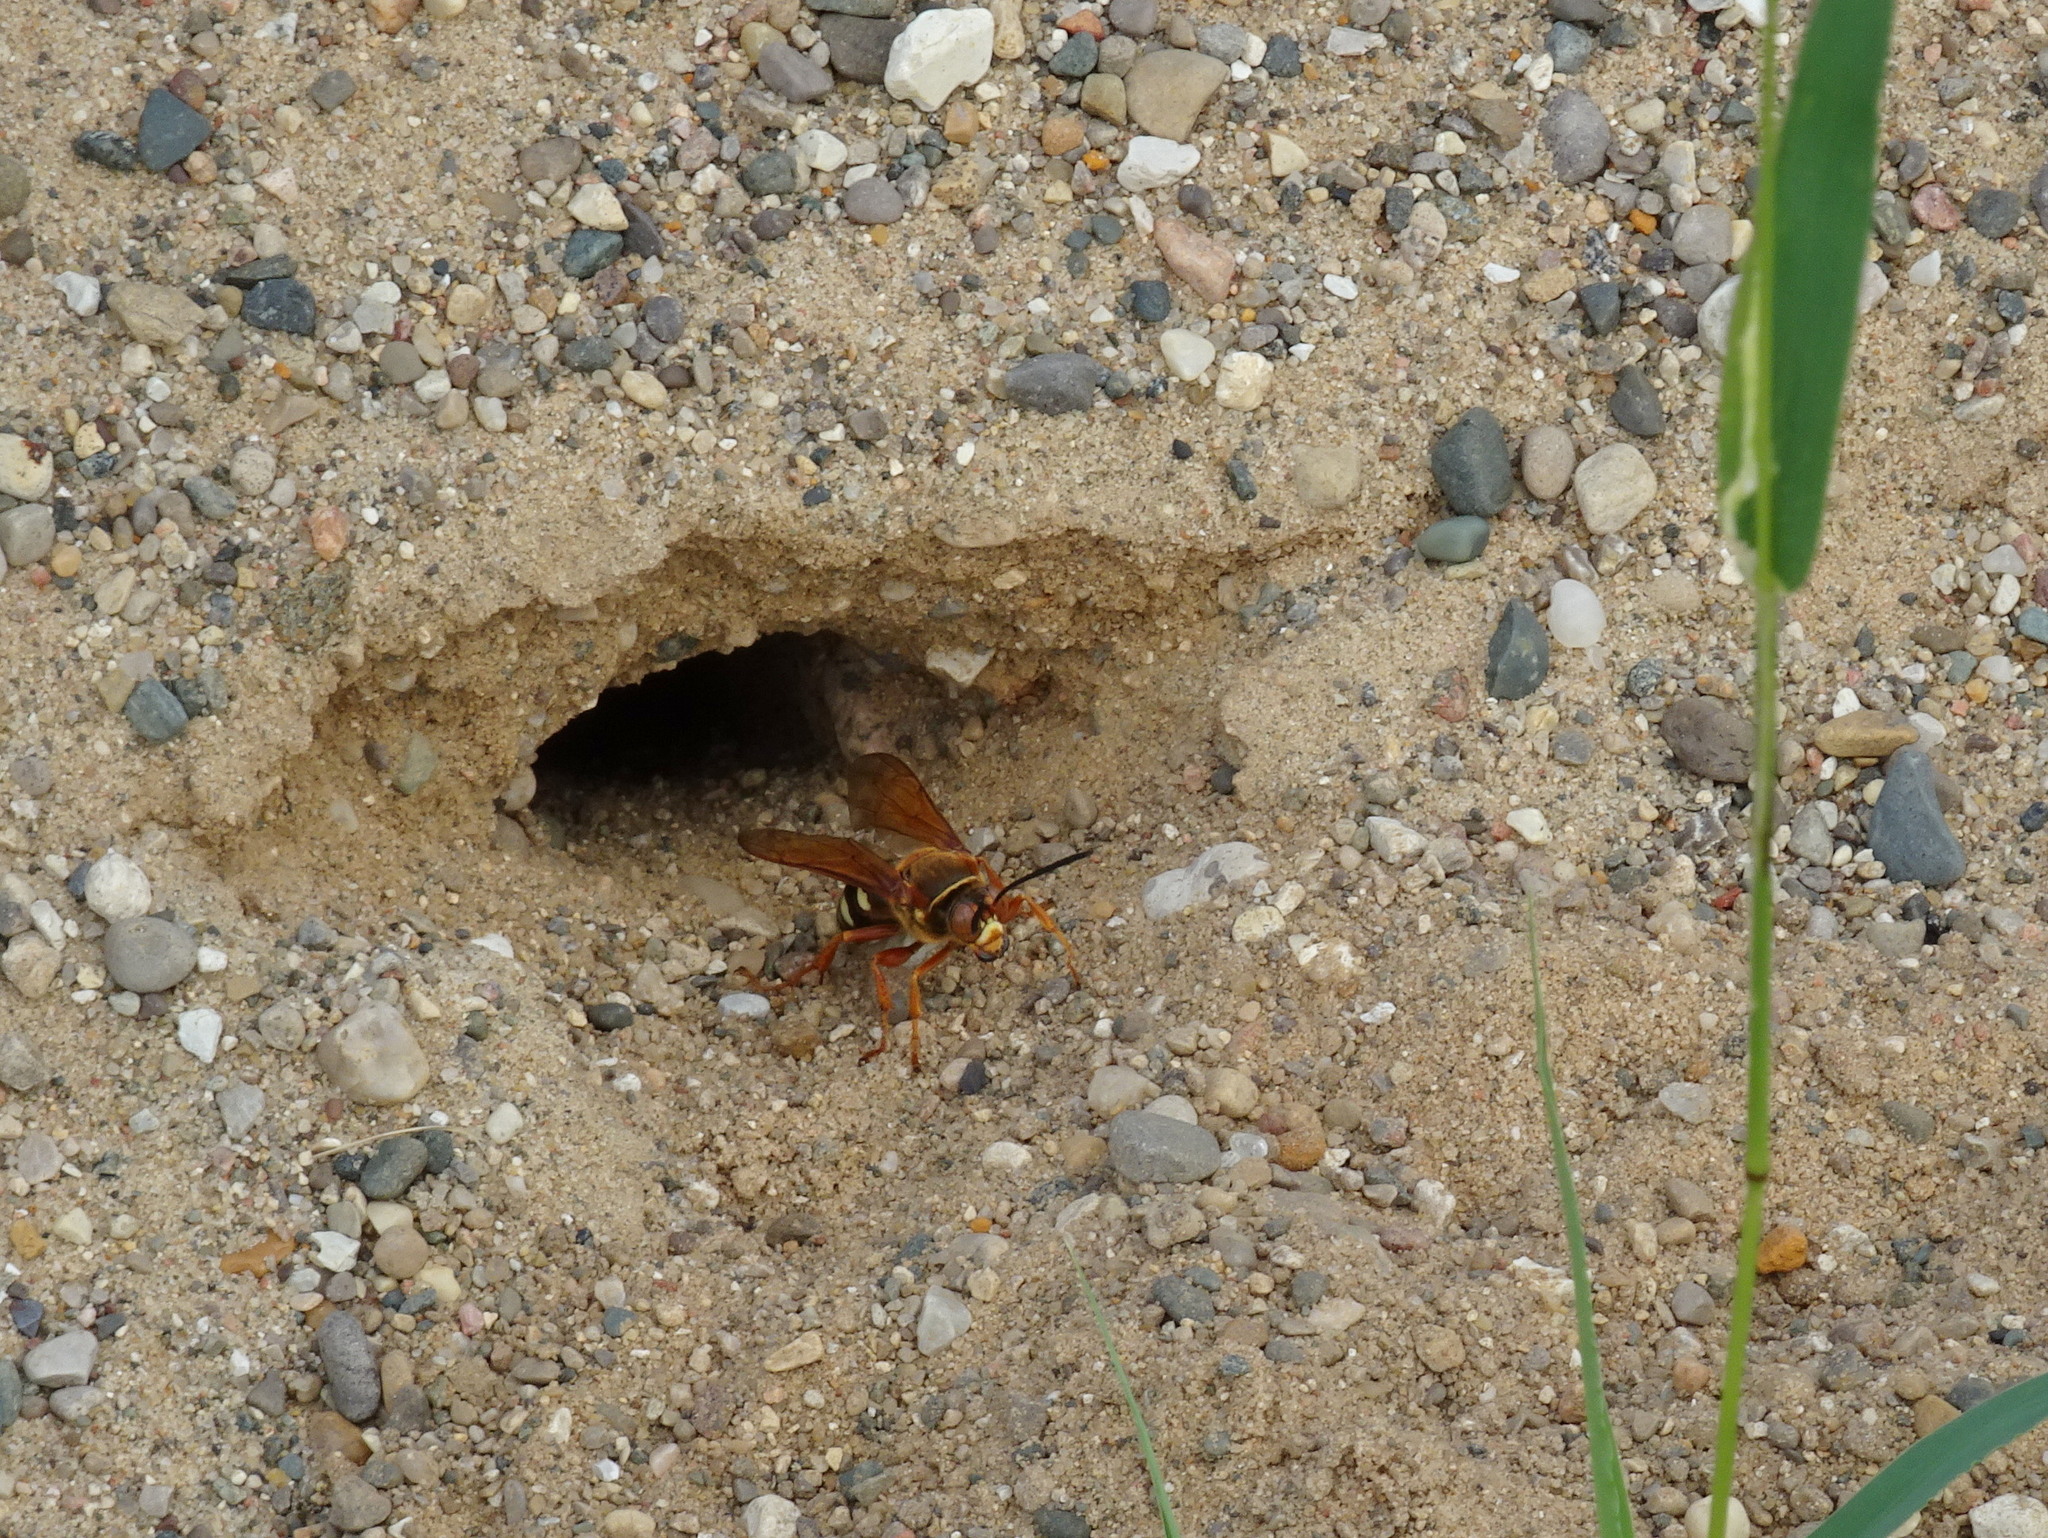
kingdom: Animalia
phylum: Arthropoda
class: Insecta
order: Hymenoptera
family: Crabronidae
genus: Sphecius
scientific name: Sphecius speciosus
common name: Cicada killer
